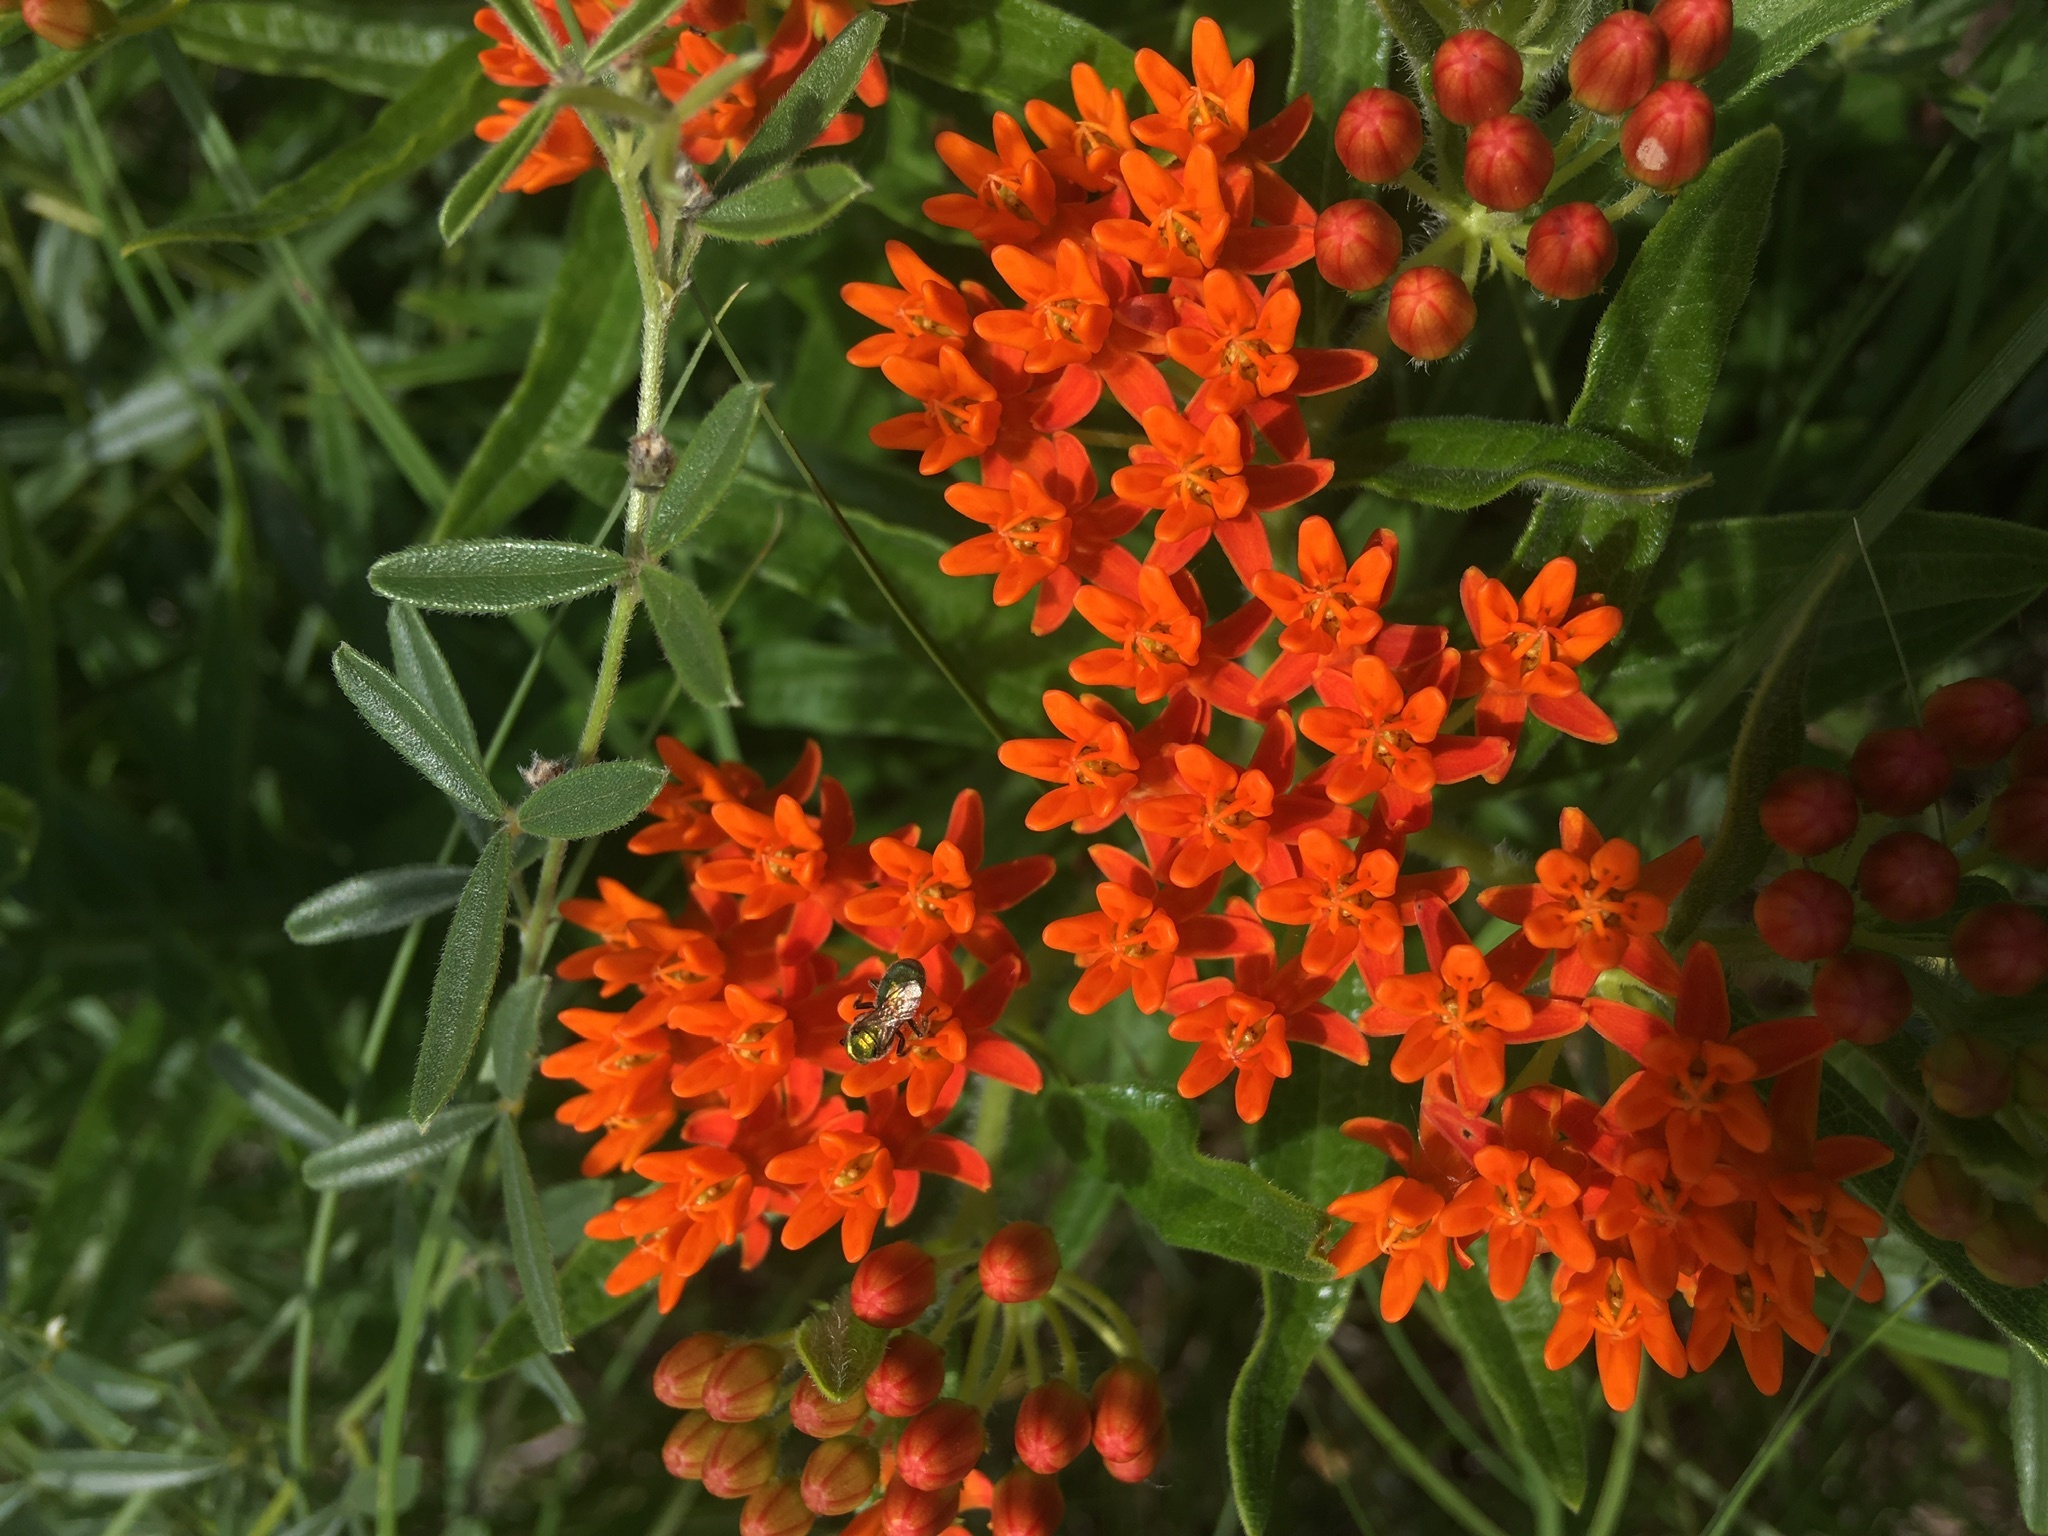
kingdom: Plantae
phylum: Tracheophyta
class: Magnoliopsida
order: Gentianales
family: Apocynaceae
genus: Asclepias
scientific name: Asclepias tuberosa
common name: Butterfly milkweed
